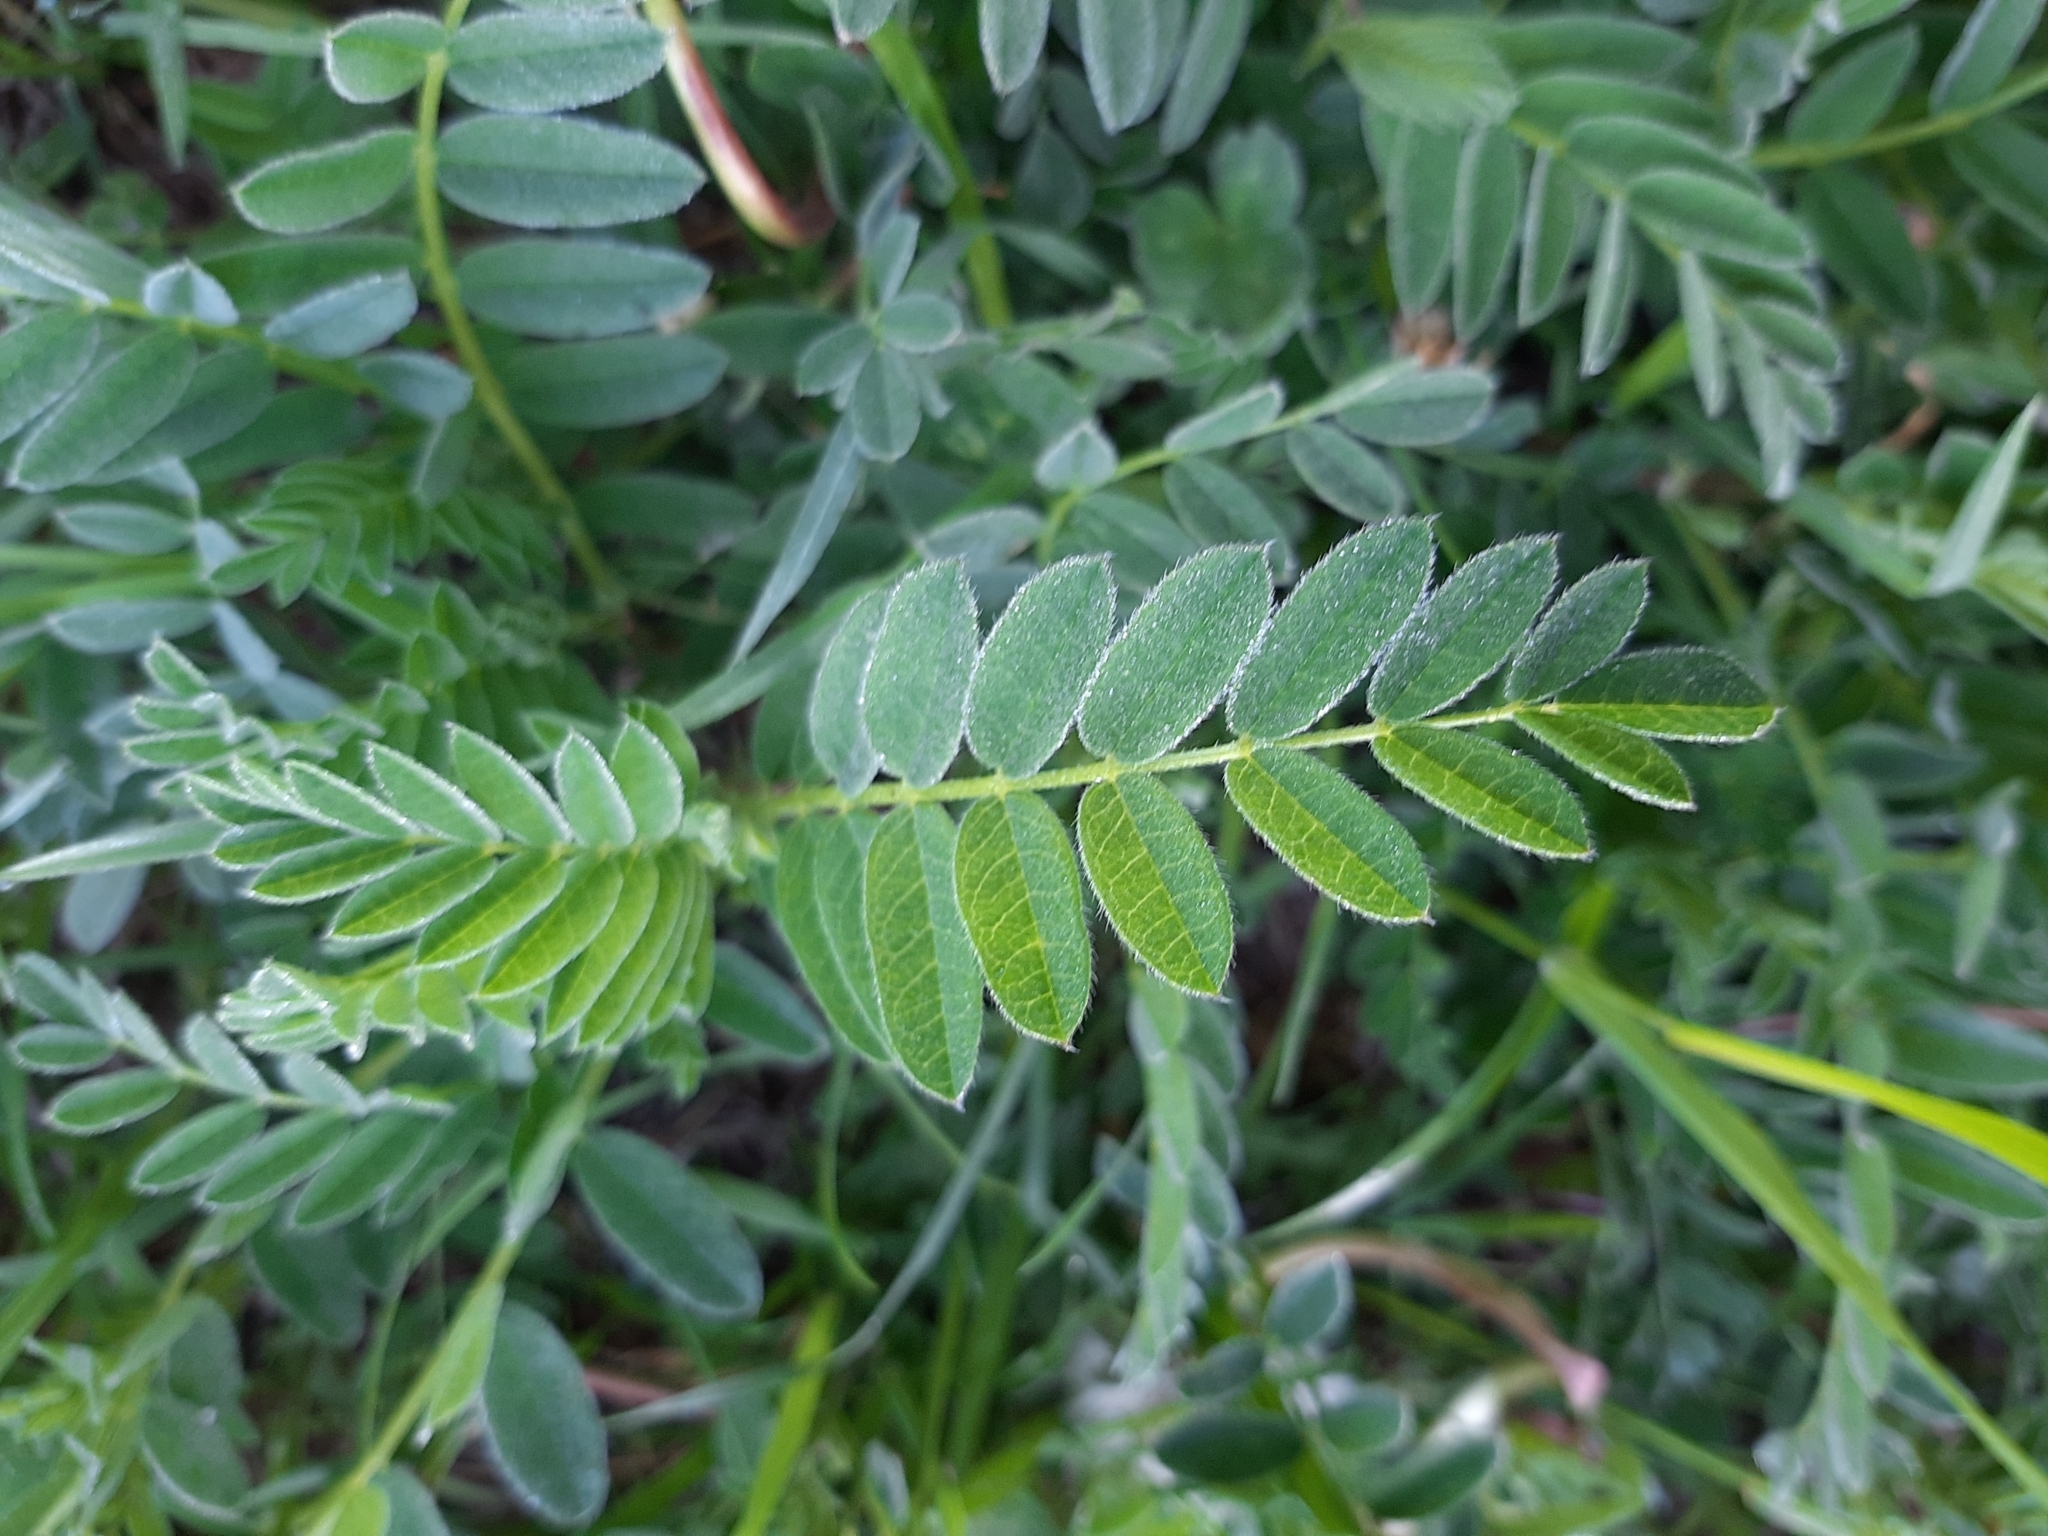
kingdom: Plantae
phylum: Tracheophyta
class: Magnoliopsida
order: Fabales
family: Fabaceae
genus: Astragalus
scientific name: Astragalus cicer
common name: Chick-pea milk-vetch
